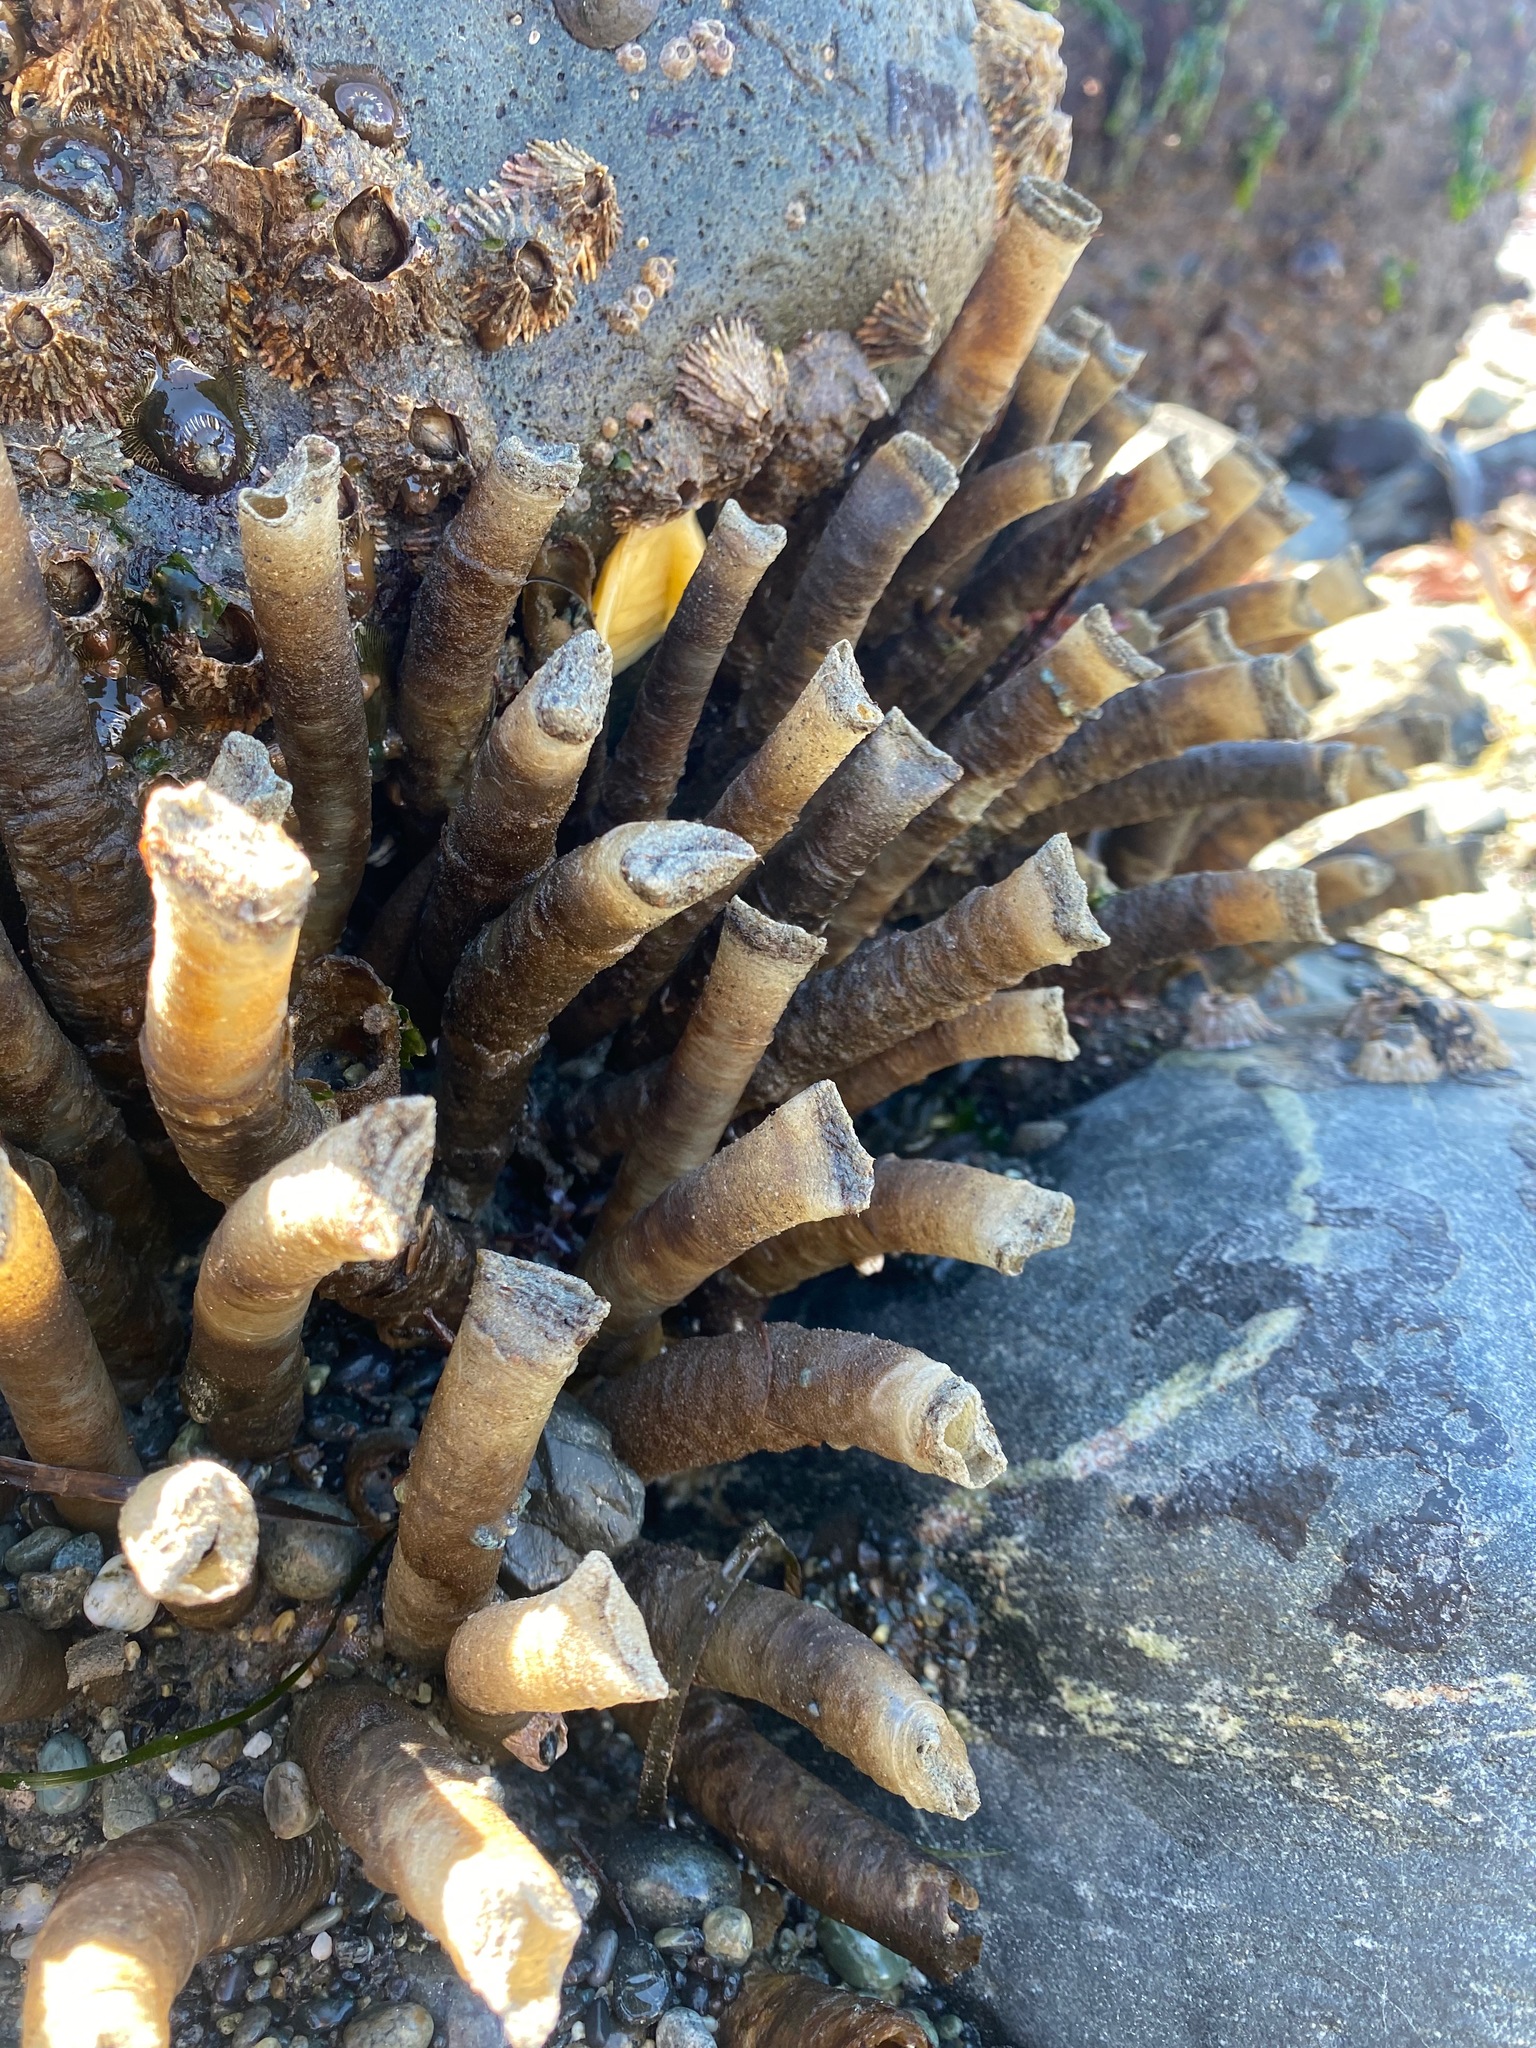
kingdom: Animalia
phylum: Annelida
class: Polychaeta
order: Sabellida
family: Sabellidae
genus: Eudistylia
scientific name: Eudistylia vancouveri
